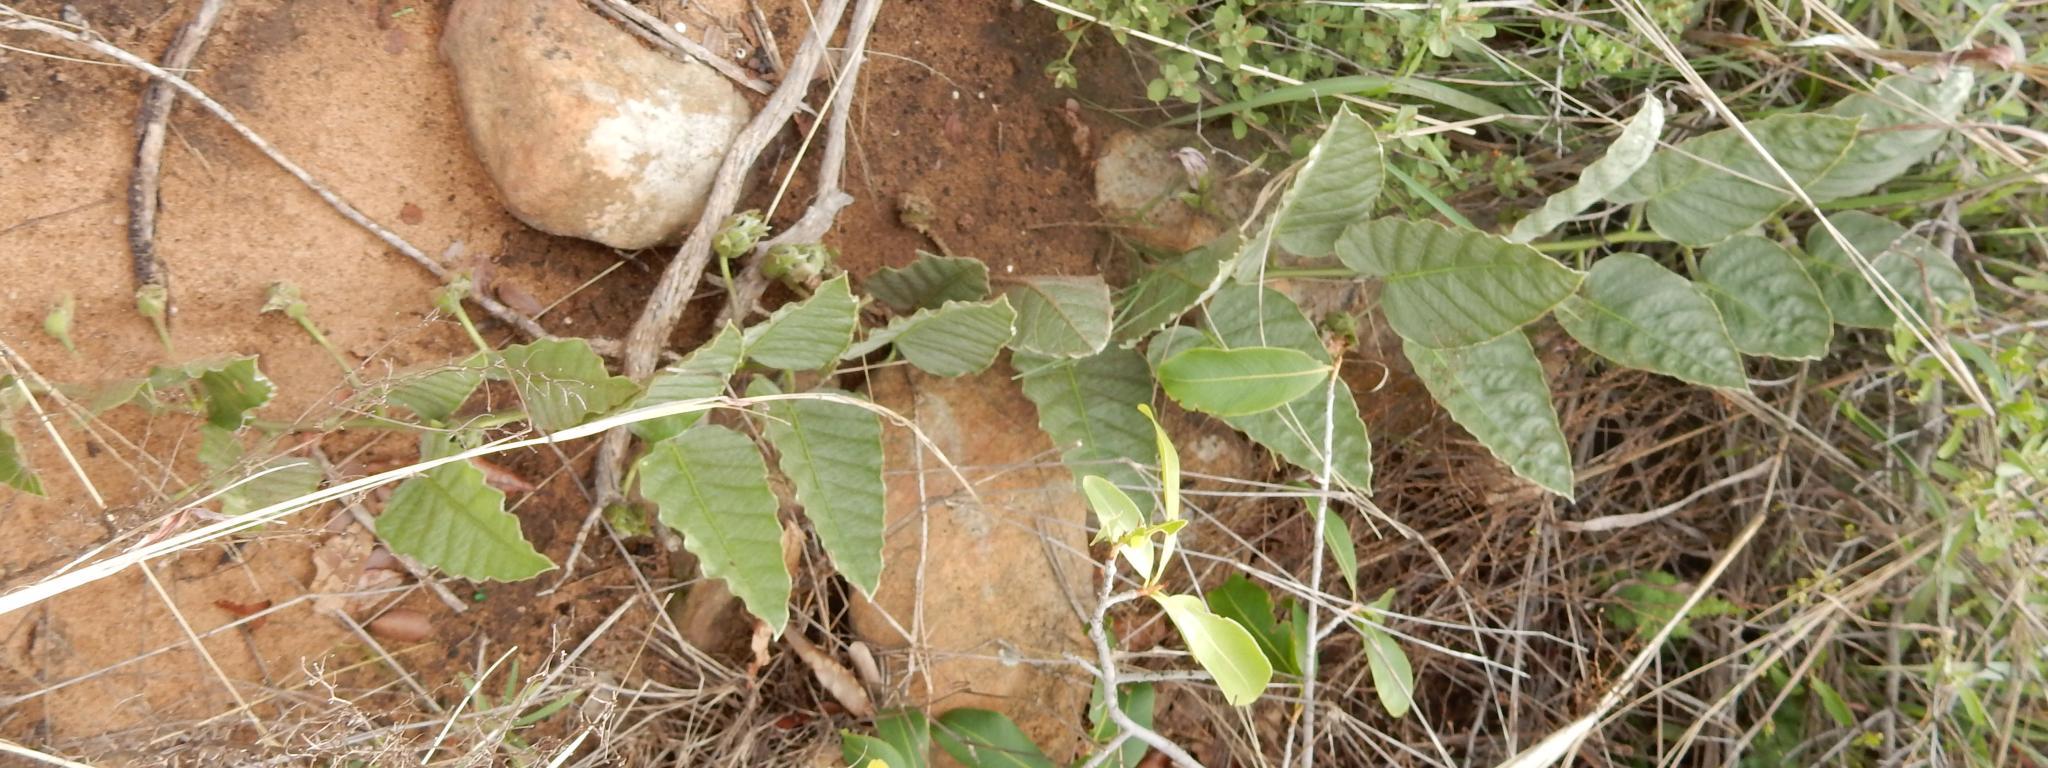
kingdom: Plantae
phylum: Tracheophyta
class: Magnoliopsida
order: Solanales
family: Convolvulaceae
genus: Ipomoea
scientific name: Ipomoea ommanneyi
